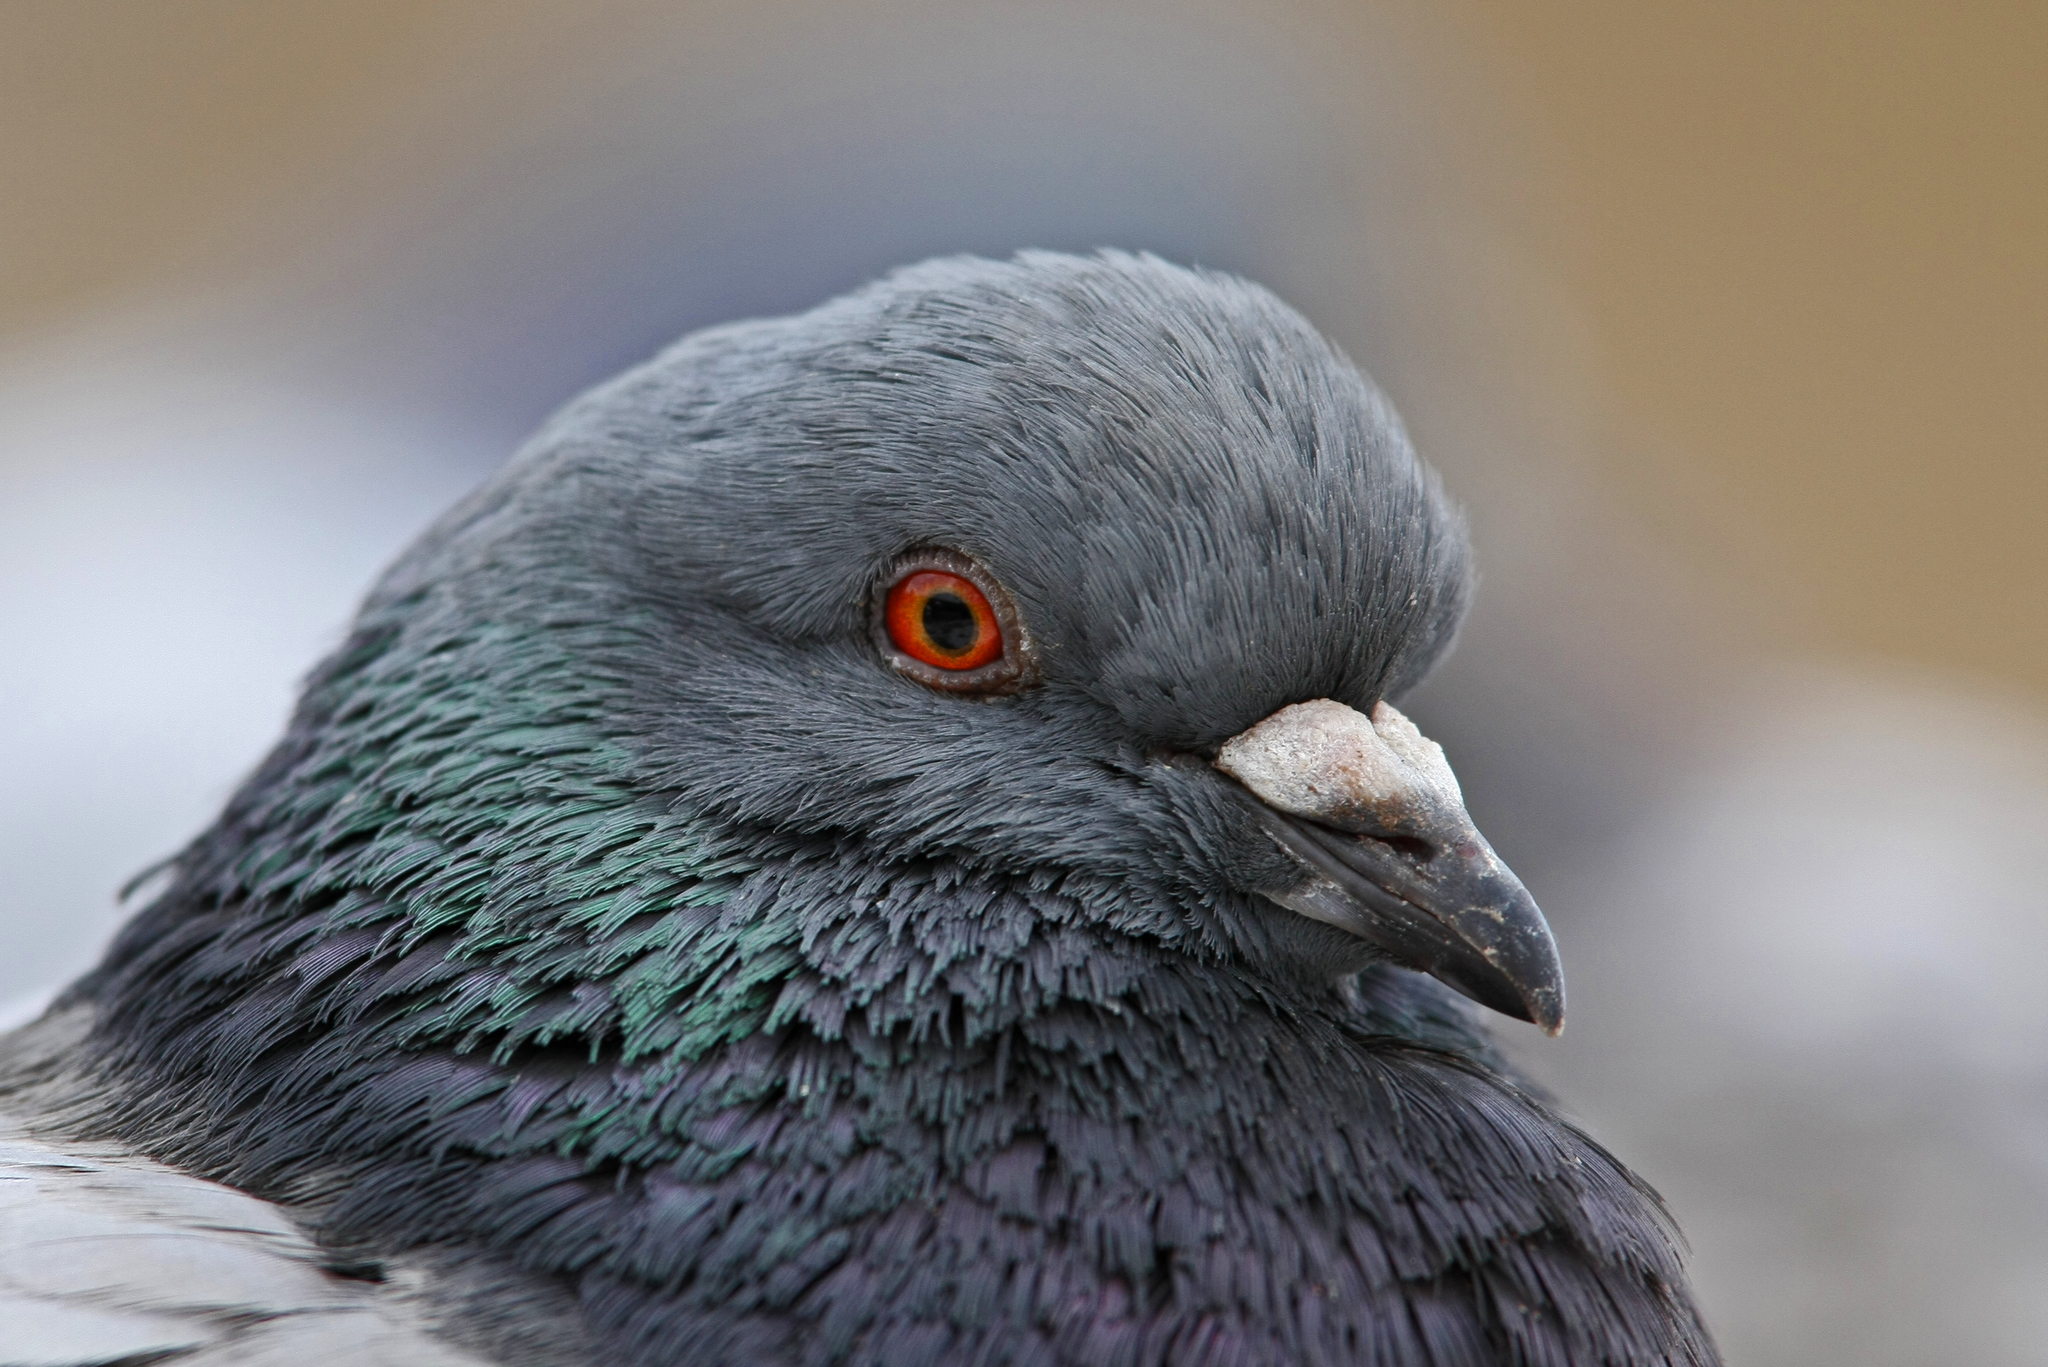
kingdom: Animalia
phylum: Chordata
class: Aves
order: Columbiformes
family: Columbidae
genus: Columba
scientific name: Columba livia
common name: Rock pigeon
